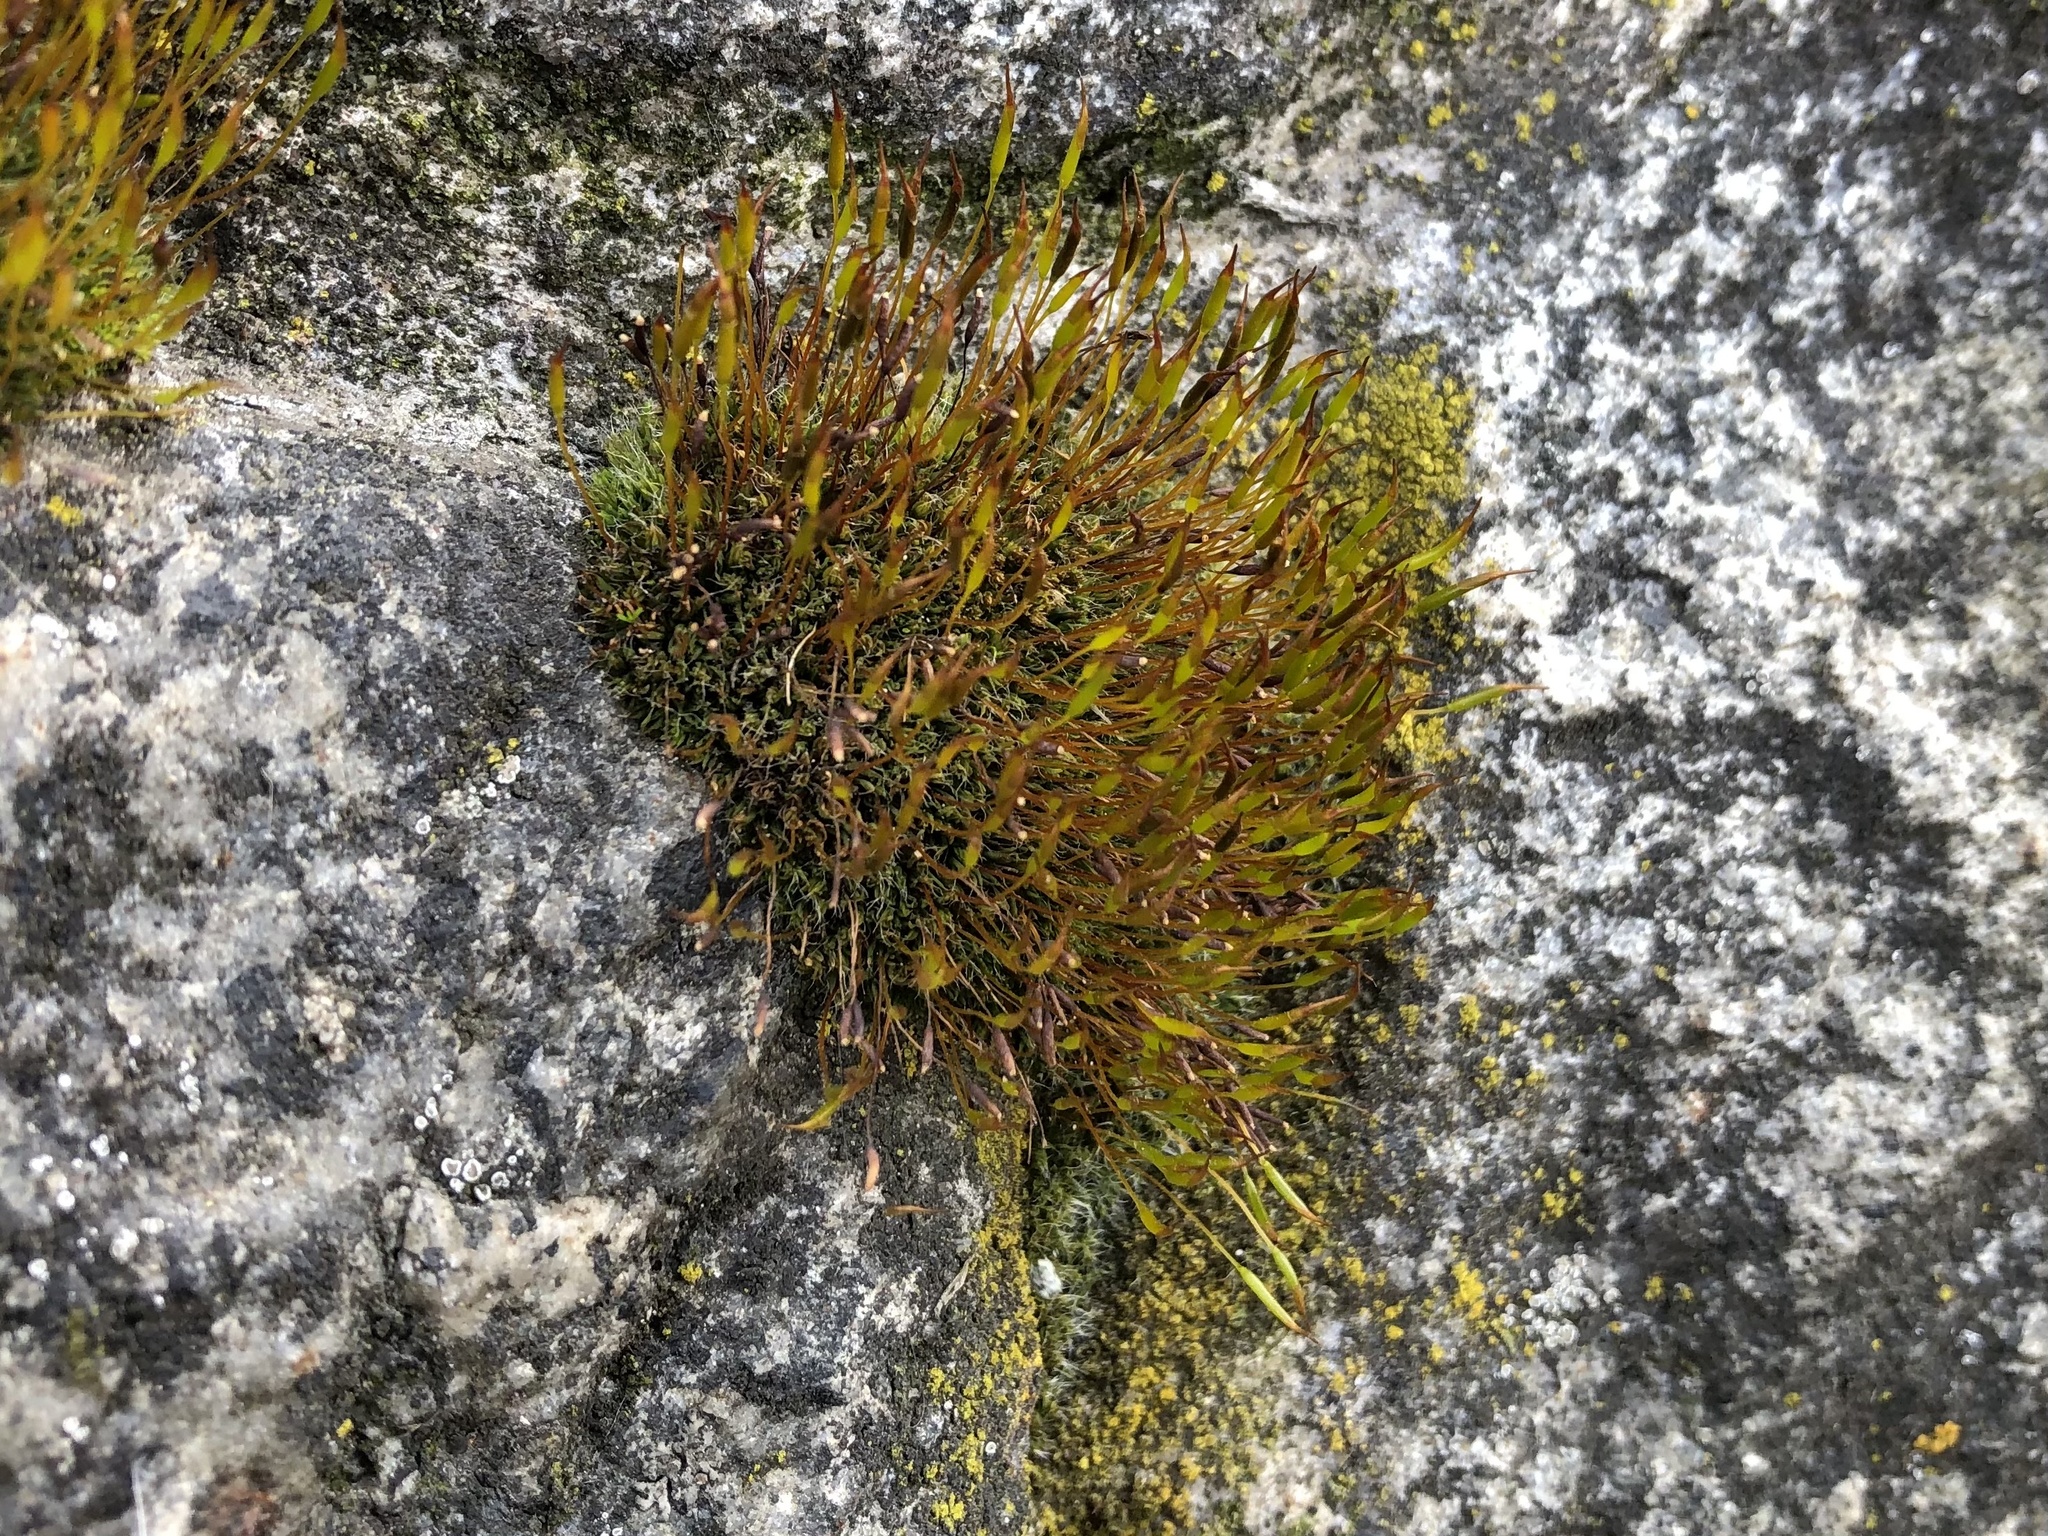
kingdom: Plantae
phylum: Bryophyta
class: Bryopsida
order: Pottiales
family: Pottiaceae
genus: Tortula
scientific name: Tortula muralis
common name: Wall screw-moss
